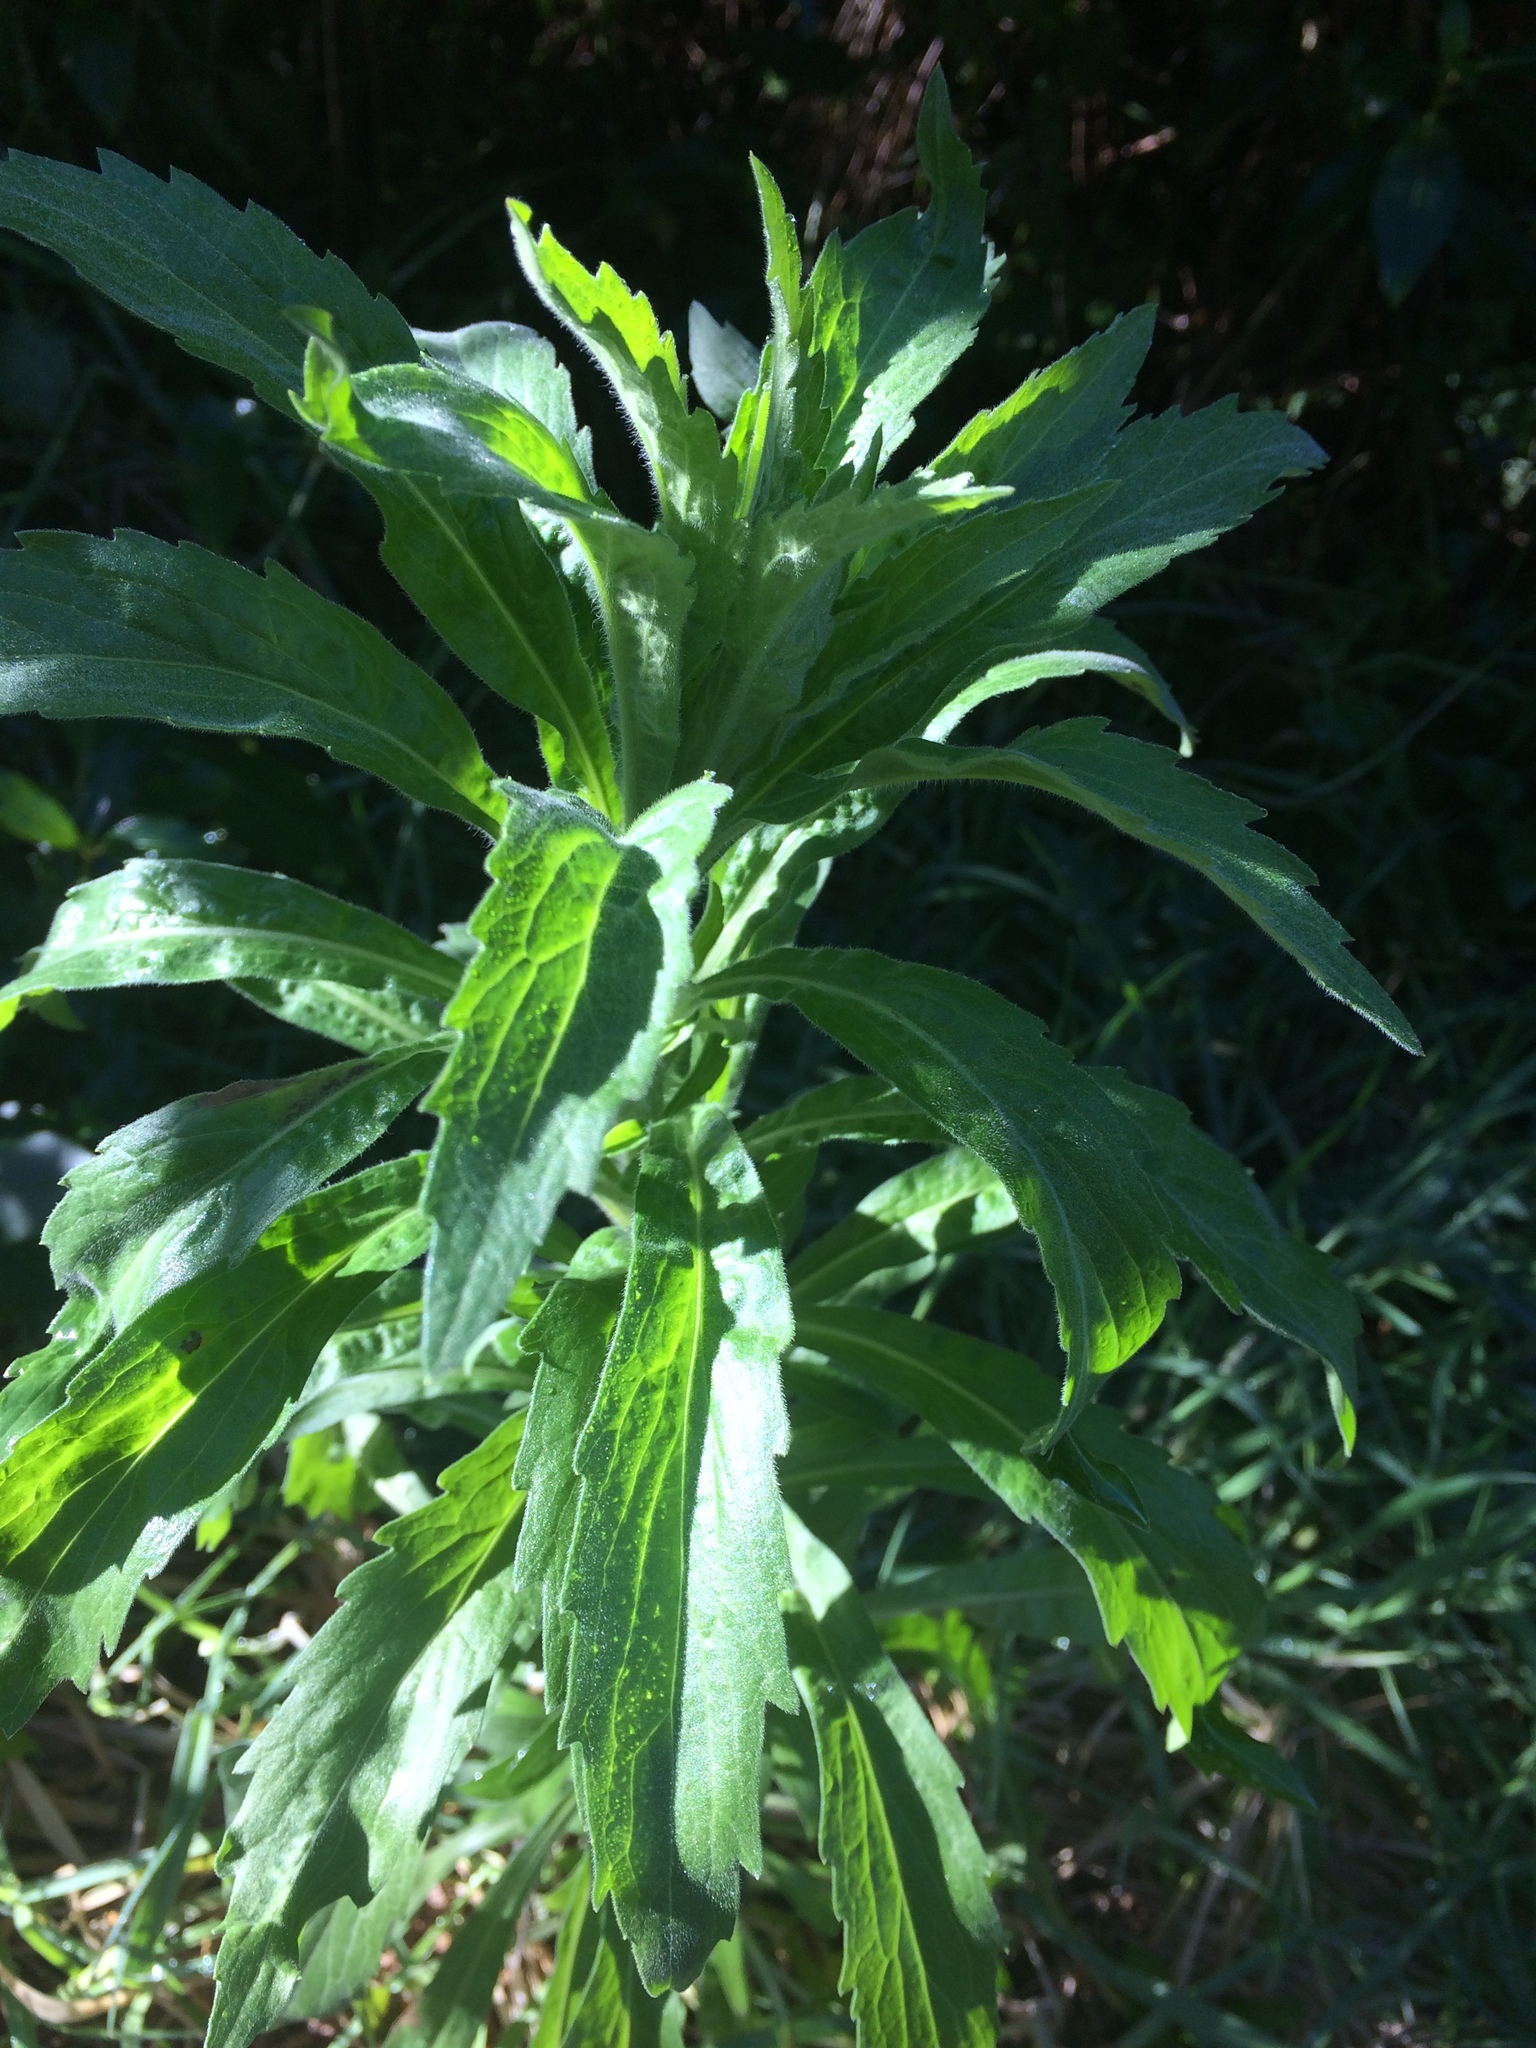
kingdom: Plantae
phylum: Tracheophyta
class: Magnoliopsida
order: Asterales
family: Asteraceae
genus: Erigeron
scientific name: Erigeron canadensis
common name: Canadian fleabane
